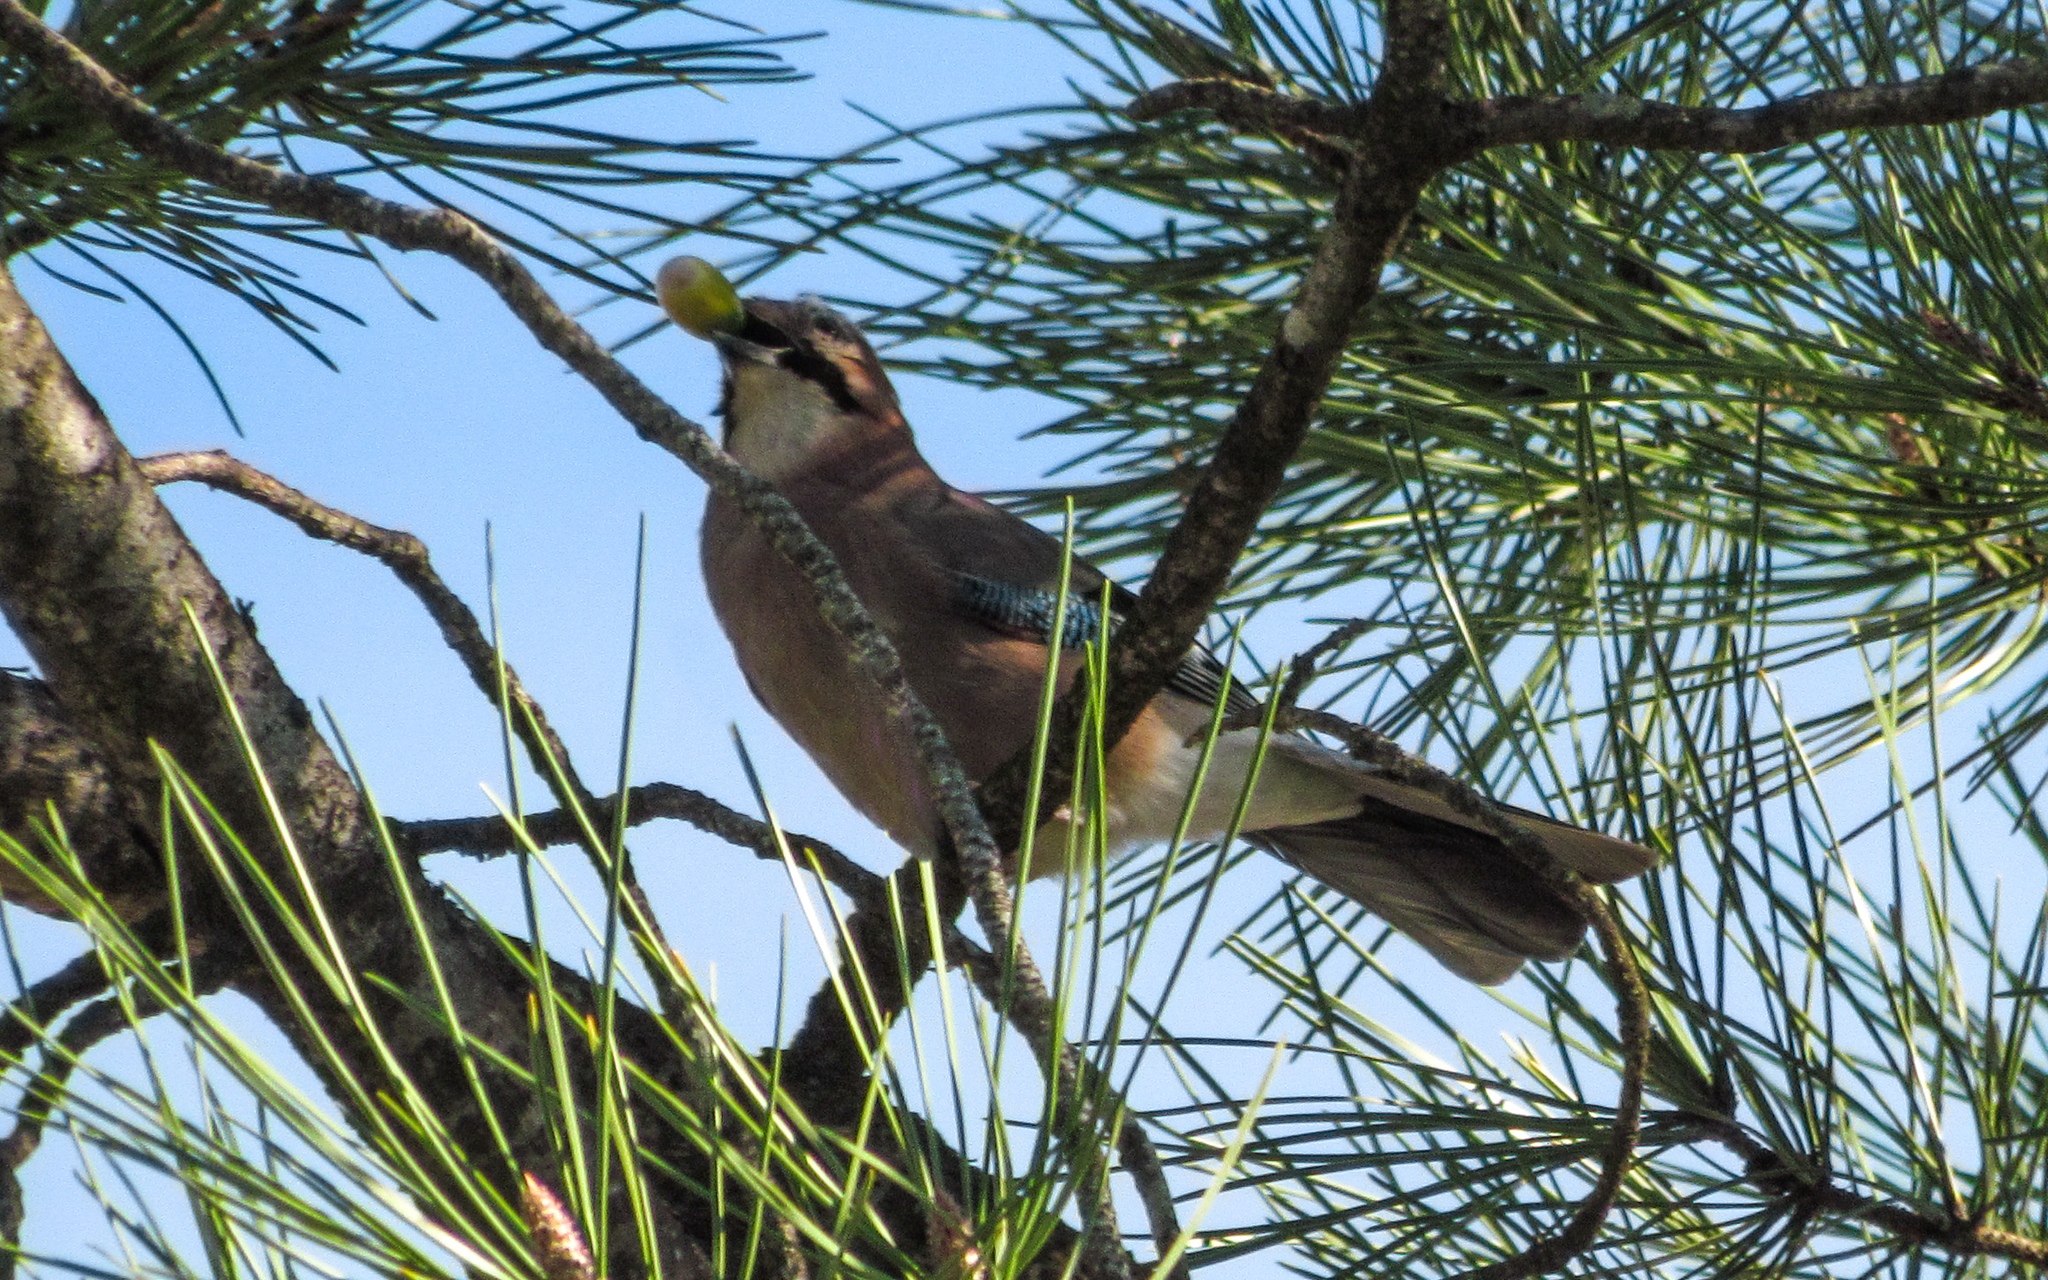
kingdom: Animalia
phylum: Chordata
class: Aves
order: Passeriformes
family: Corvidae
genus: Garrulus
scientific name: Garrulus glandarius
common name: Eurasian jay
